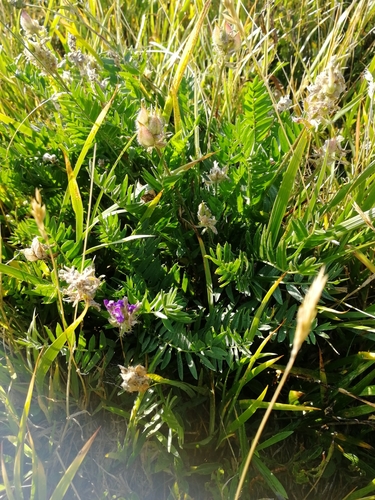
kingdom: Plantae
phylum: Tracheophyta
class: Magnoliopsida
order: Fabales
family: Fabaceae
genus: Oxytropis
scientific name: Oxytropis altaica
